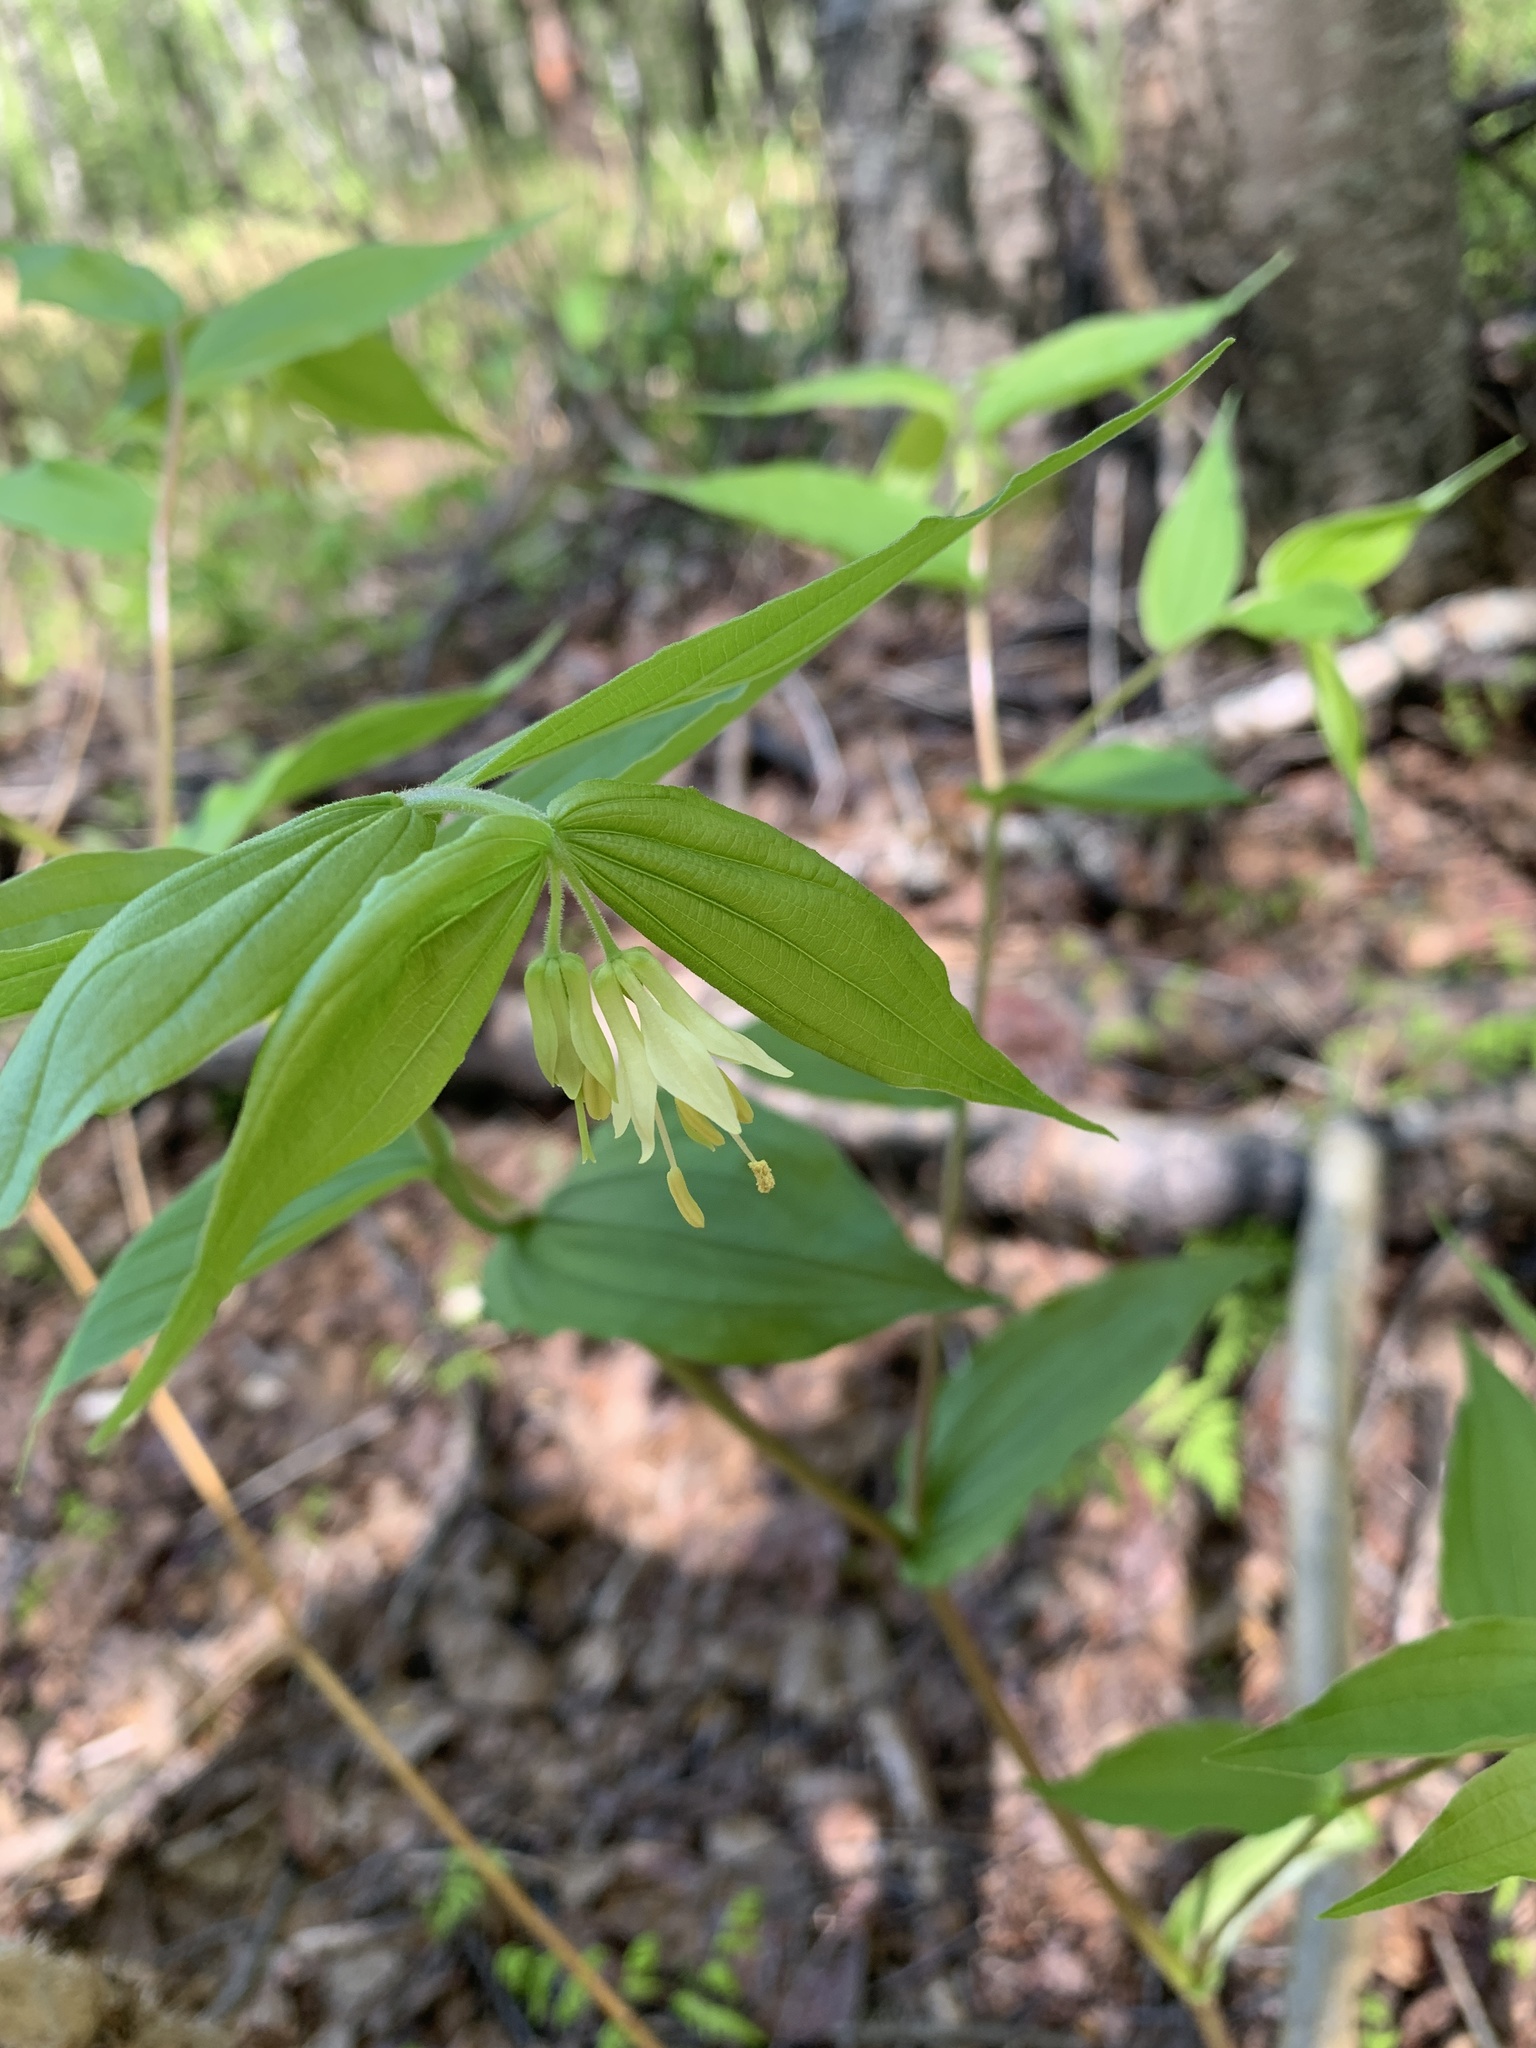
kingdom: Plantae
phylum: Tracheophyta
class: Liliopsida
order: Liliales
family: Liliaceae
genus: Prosartes
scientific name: Prosartes hookeri
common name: Fairy-bells
